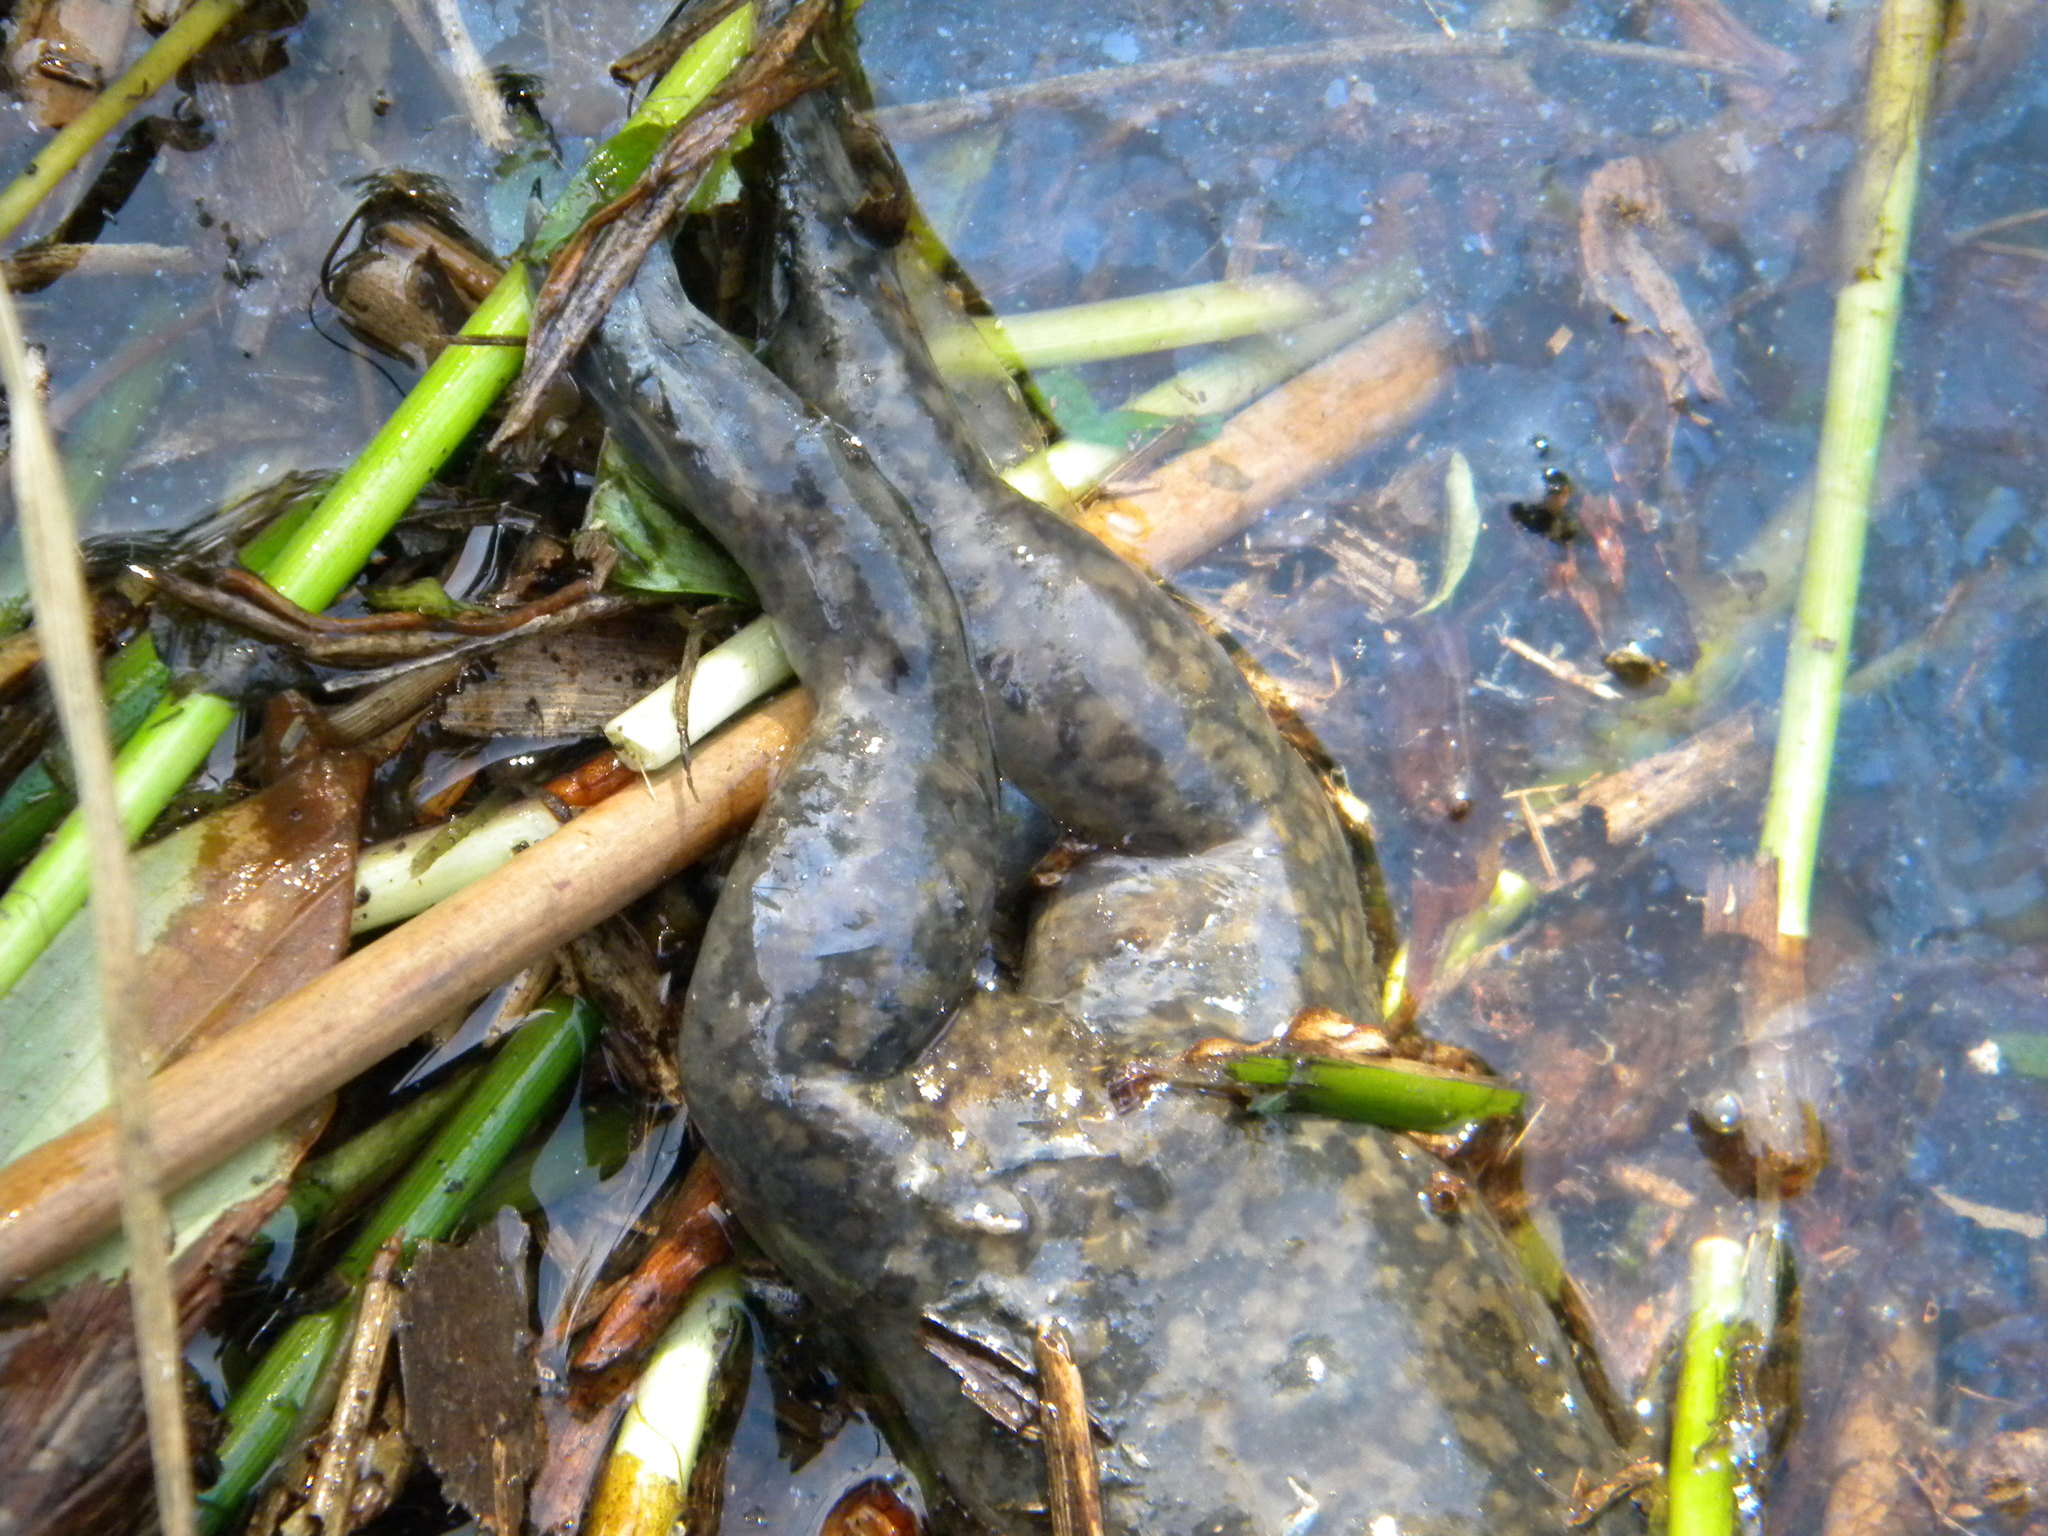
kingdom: Animalia
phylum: Chordata
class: Amphibia
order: Anura
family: Pipidae
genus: Xenopus
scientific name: Xenopus laevis
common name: African clawed frog
